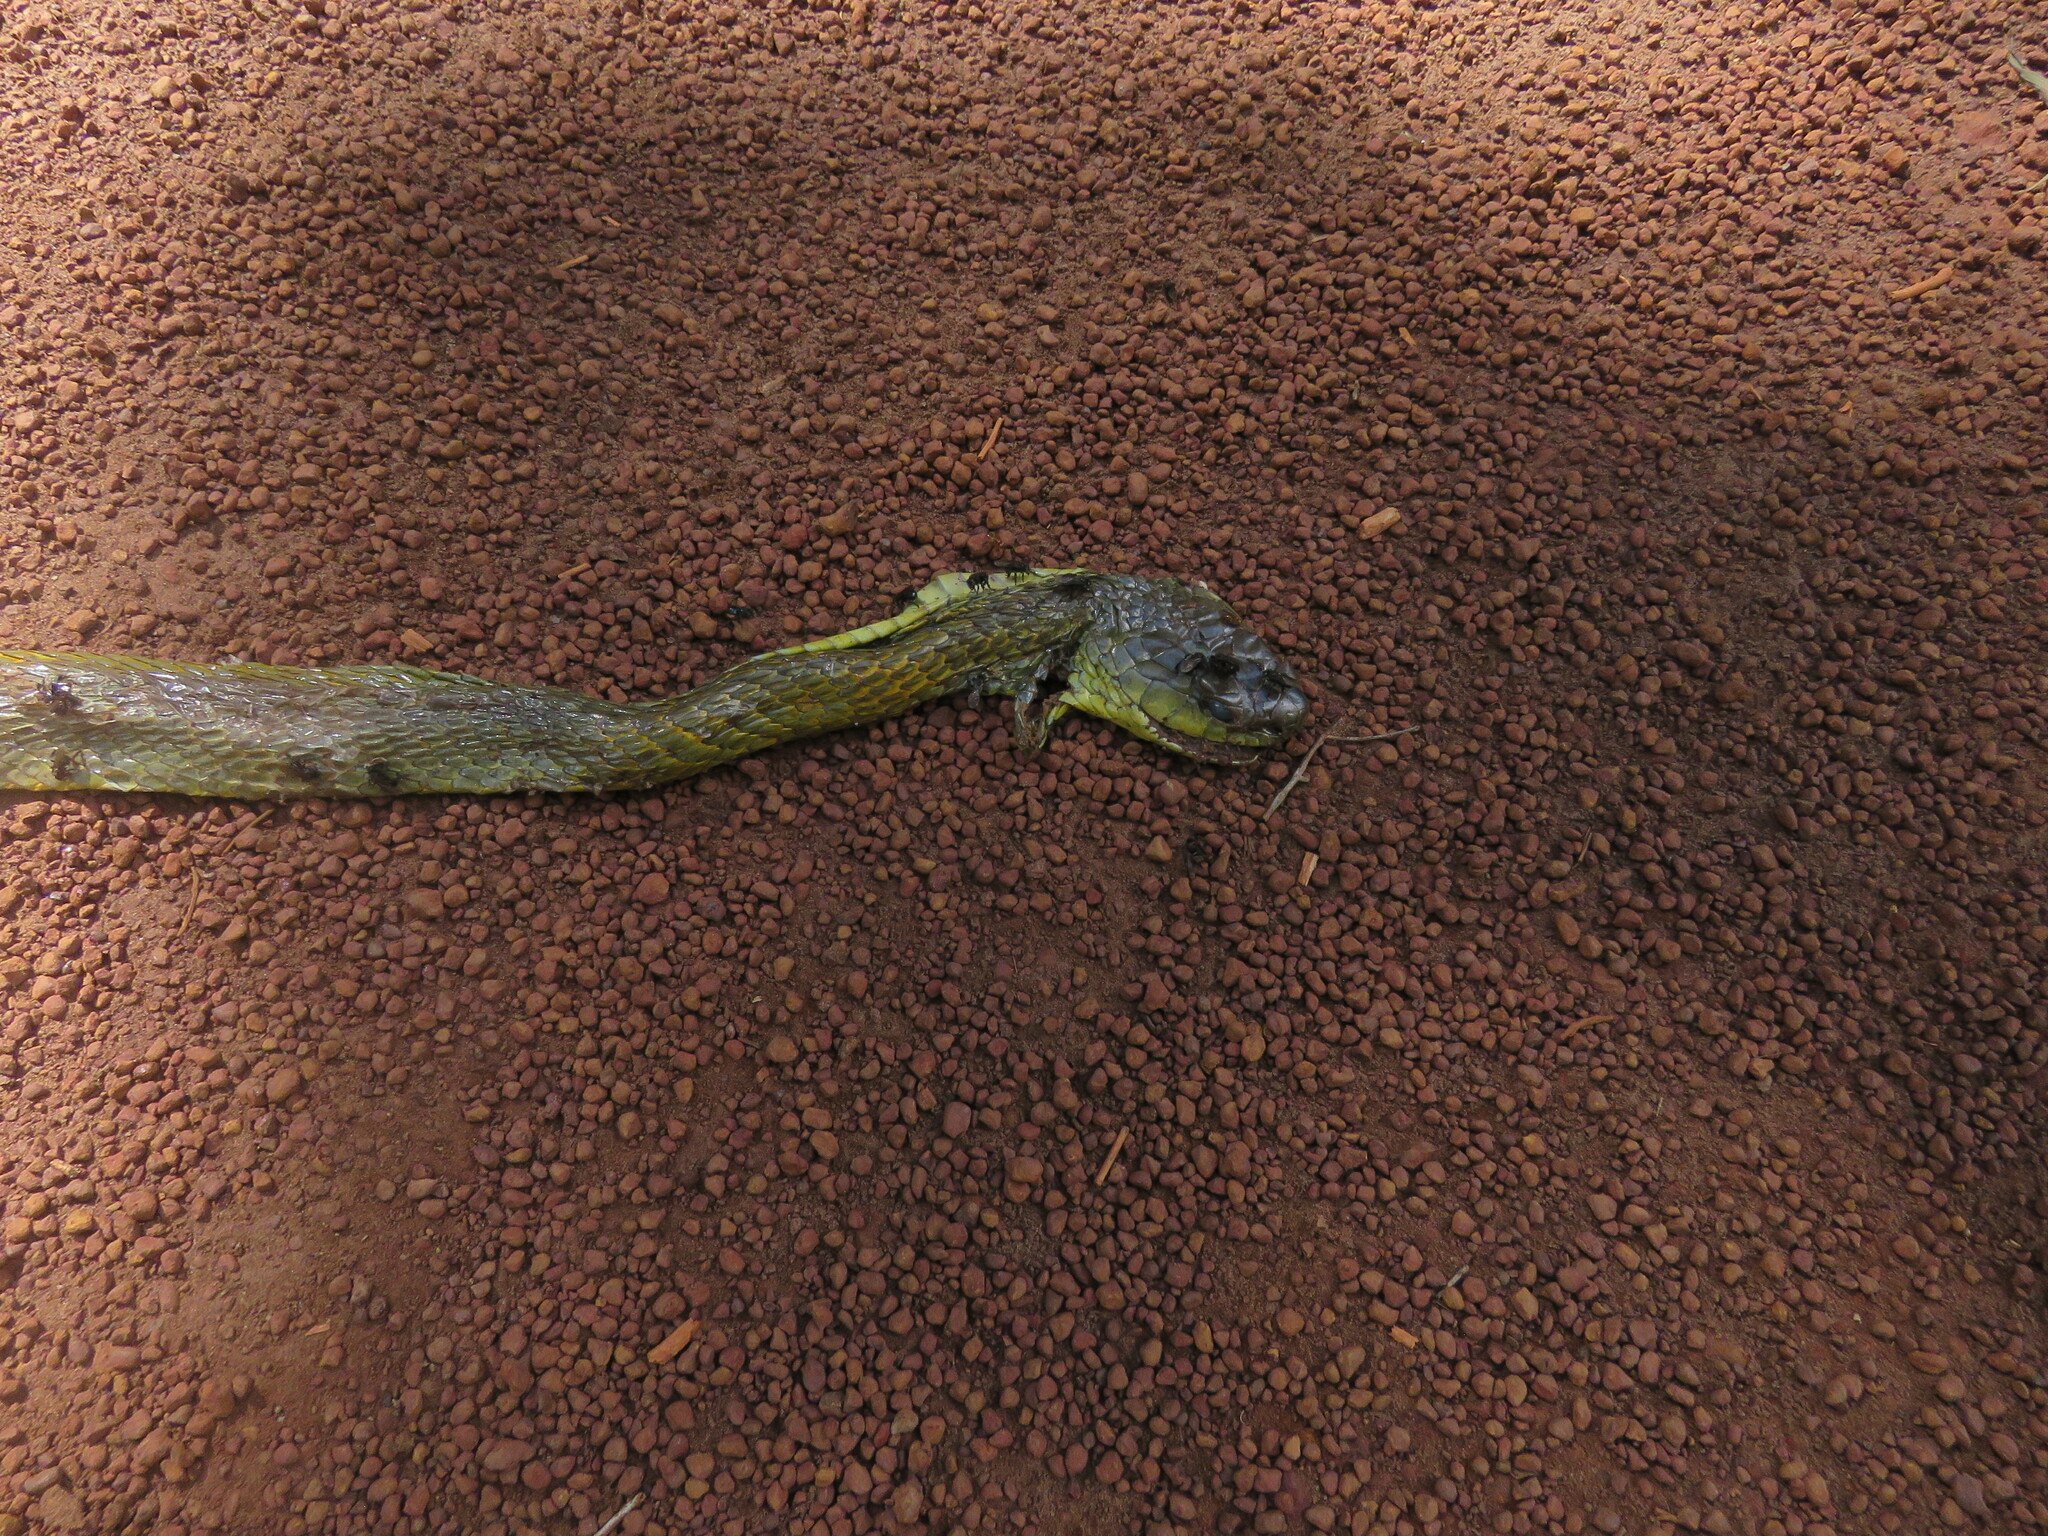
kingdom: Animalia
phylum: Chordata
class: Squamata
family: Colubridae
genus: Spilotes
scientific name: Spilotes sulphureus
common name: Amazon puffing snake
